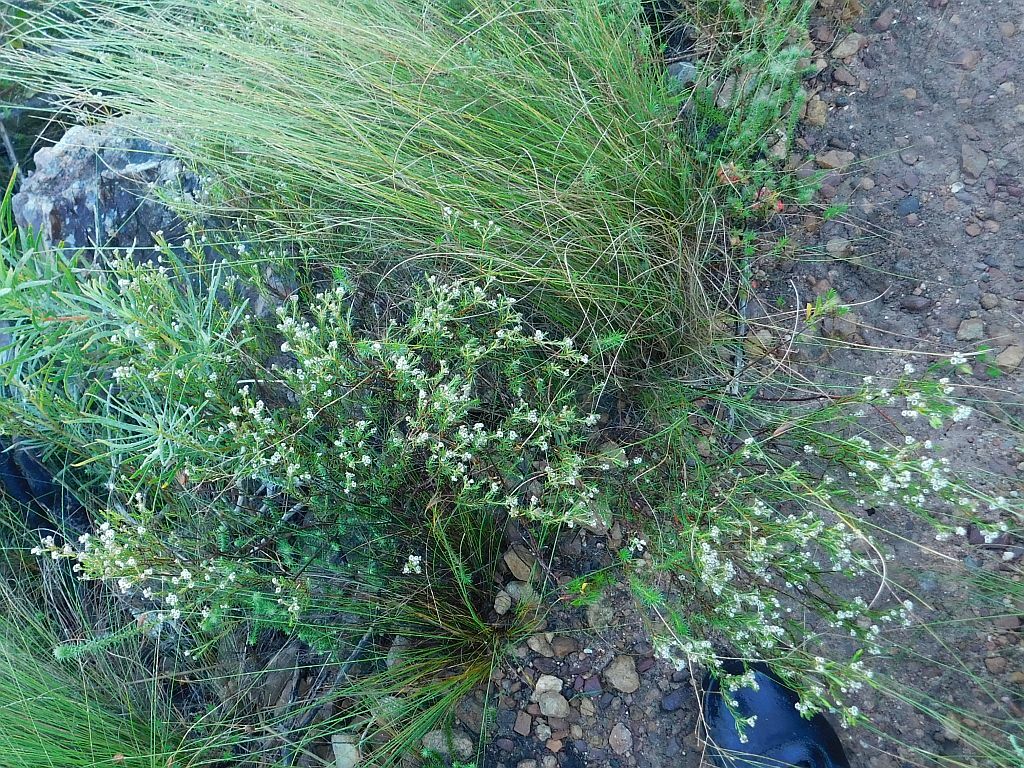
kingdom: Plantae
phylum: Tracheophyta
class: Magnoliopsida
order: Sapindales
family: Rutaceae
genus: Diosma
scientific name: Diosma hirsuta
